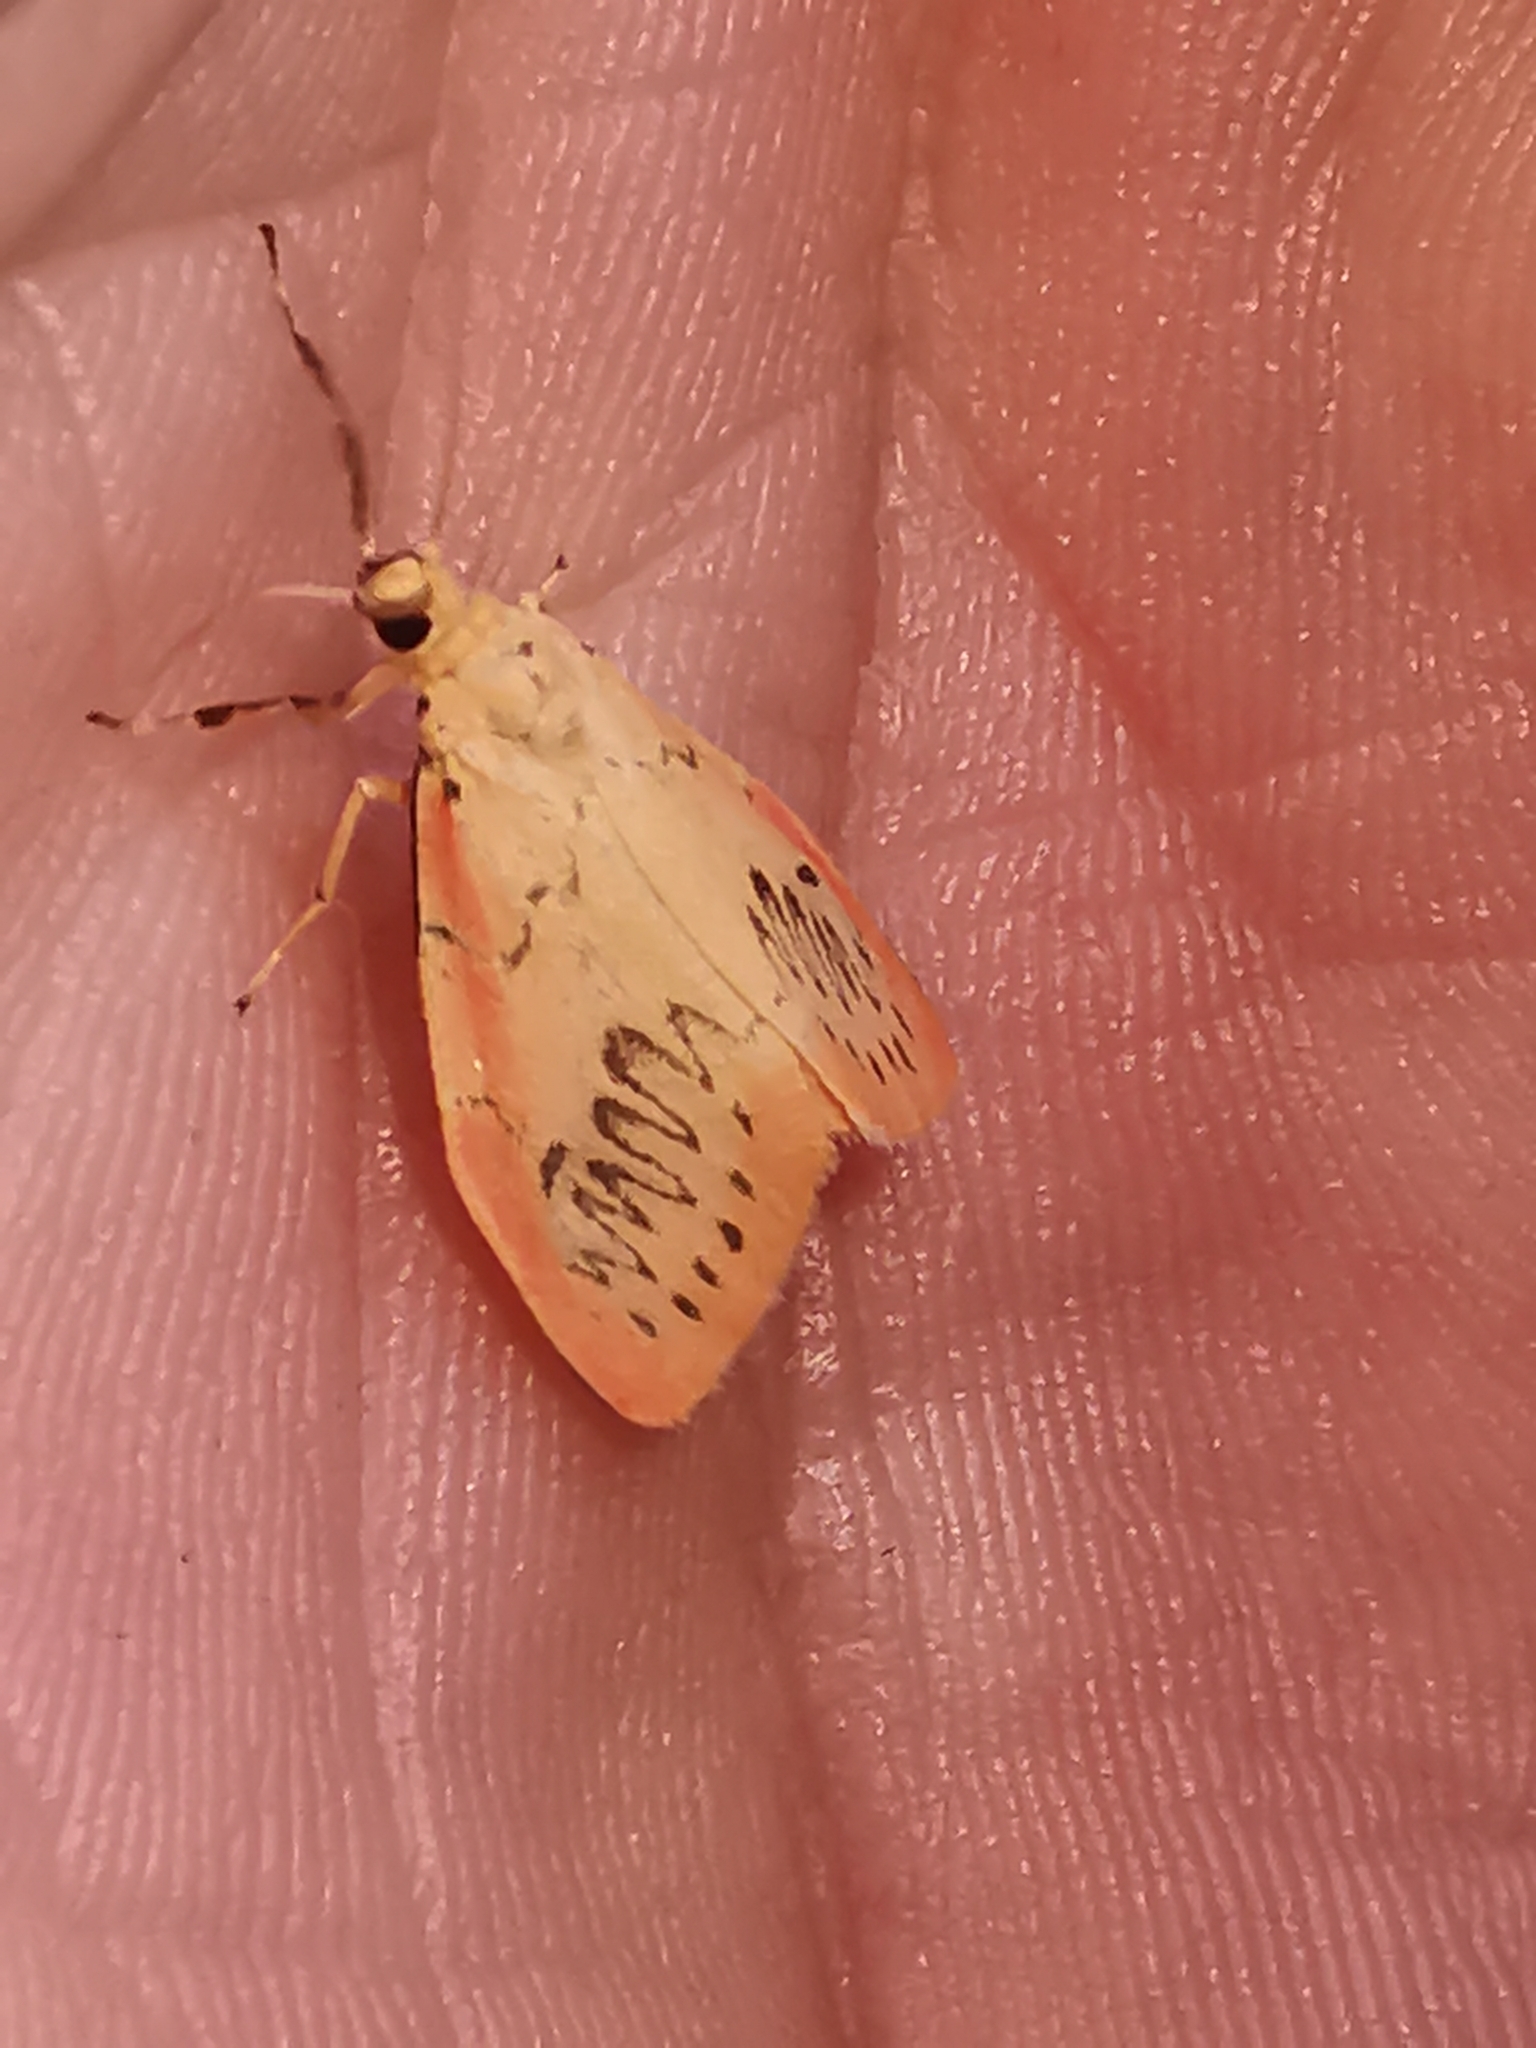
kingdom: Animalia
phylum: Arthropoda
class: Insecta
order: Lepidoptera
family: Erebidae
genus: Miltochrista
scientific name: Miltochrista miniata
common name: Rosy footman
